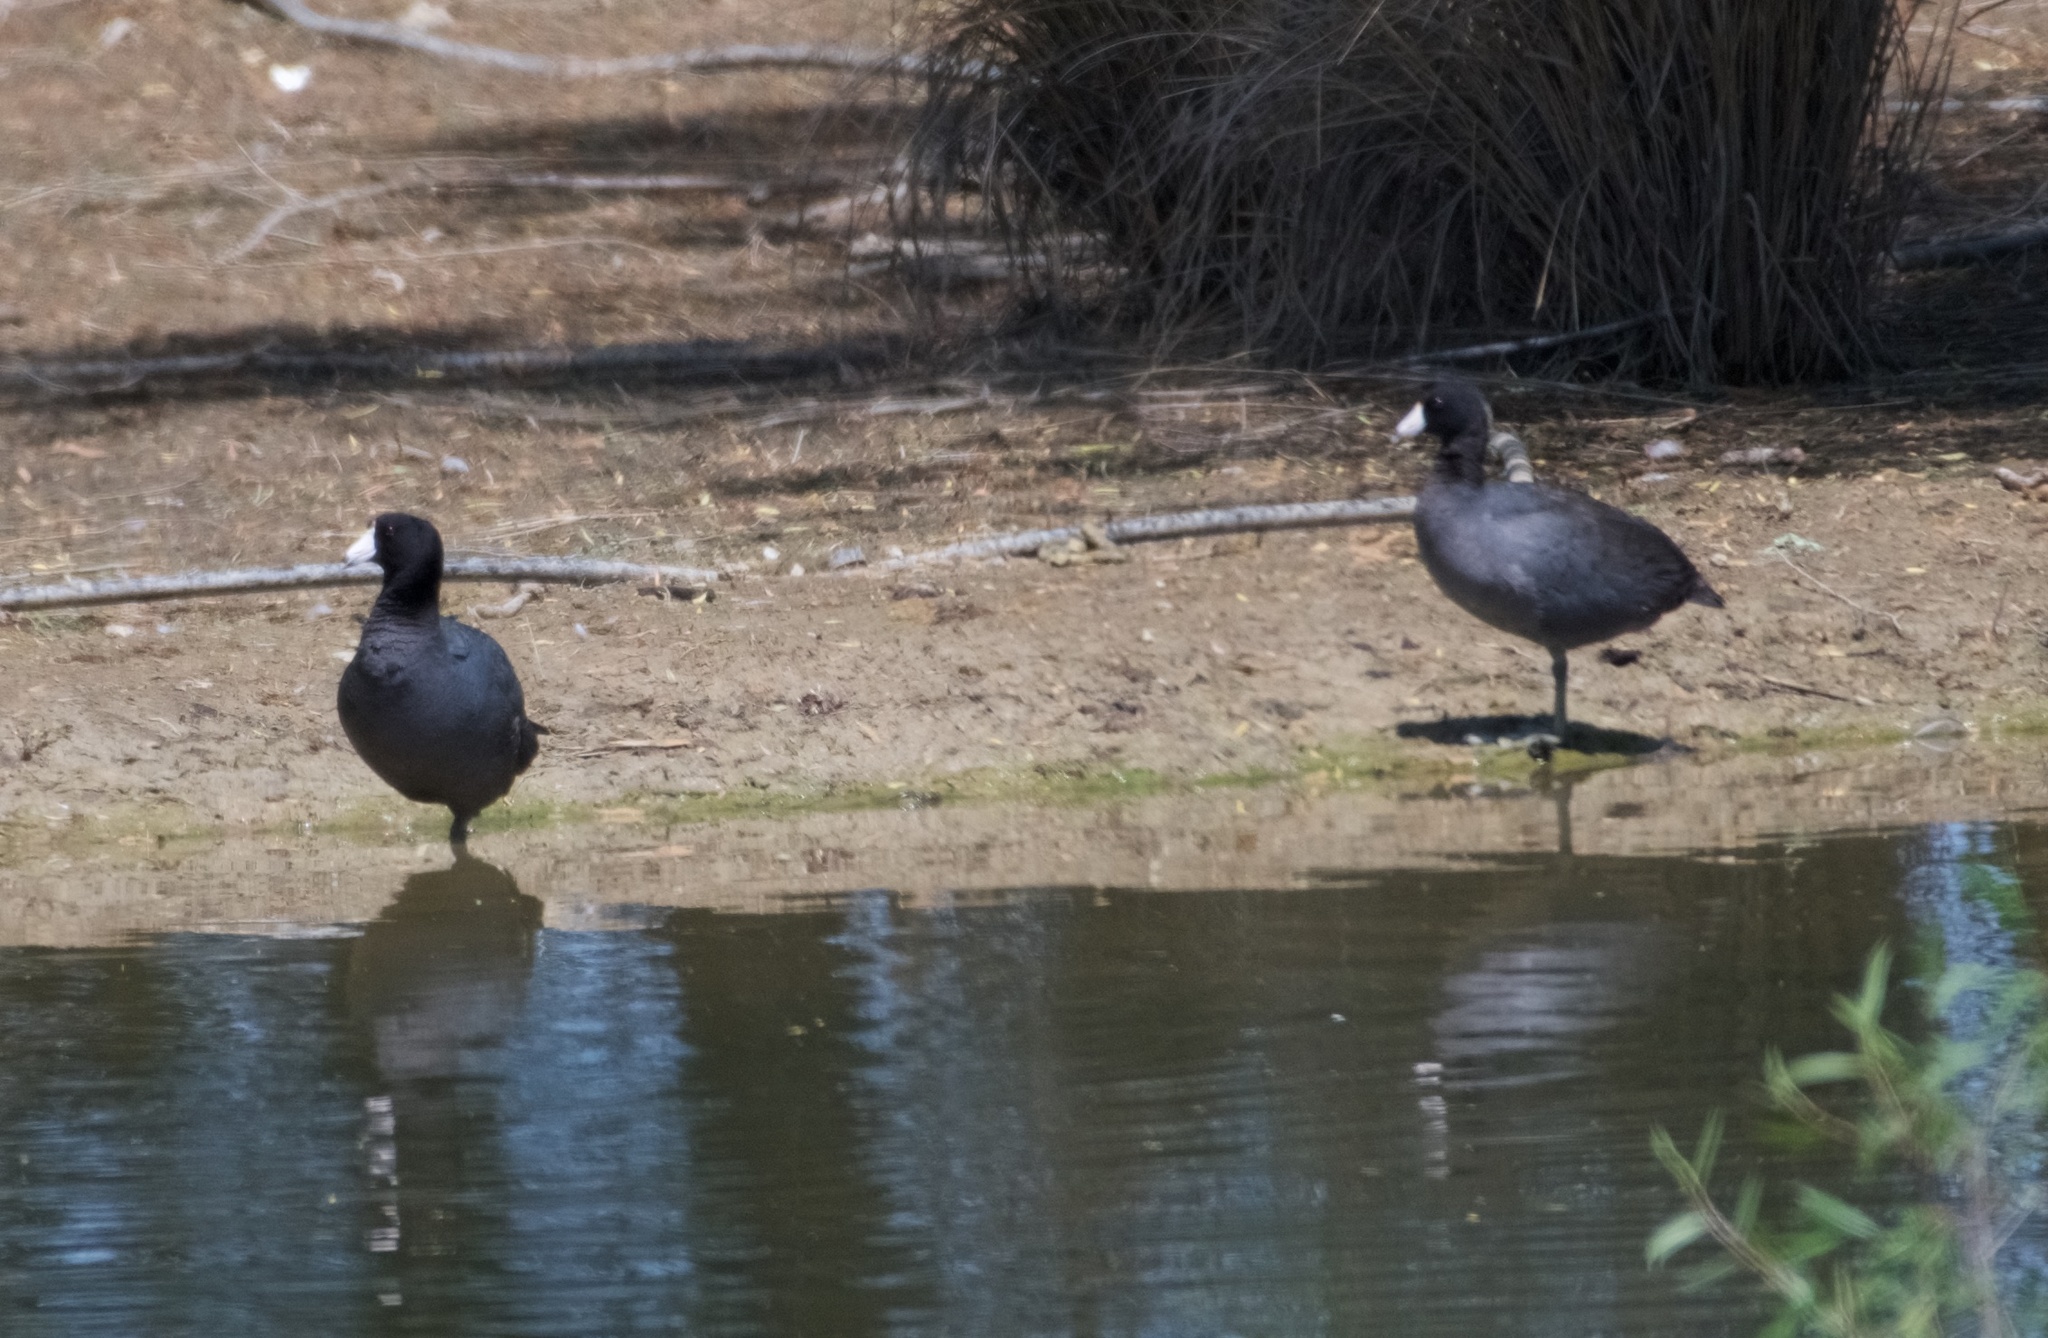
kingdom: Animalia
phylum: Chordata
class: Aves
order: Gruiformes
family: Rallidae
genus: Fulica
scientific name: Fulica americana
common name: American coot
